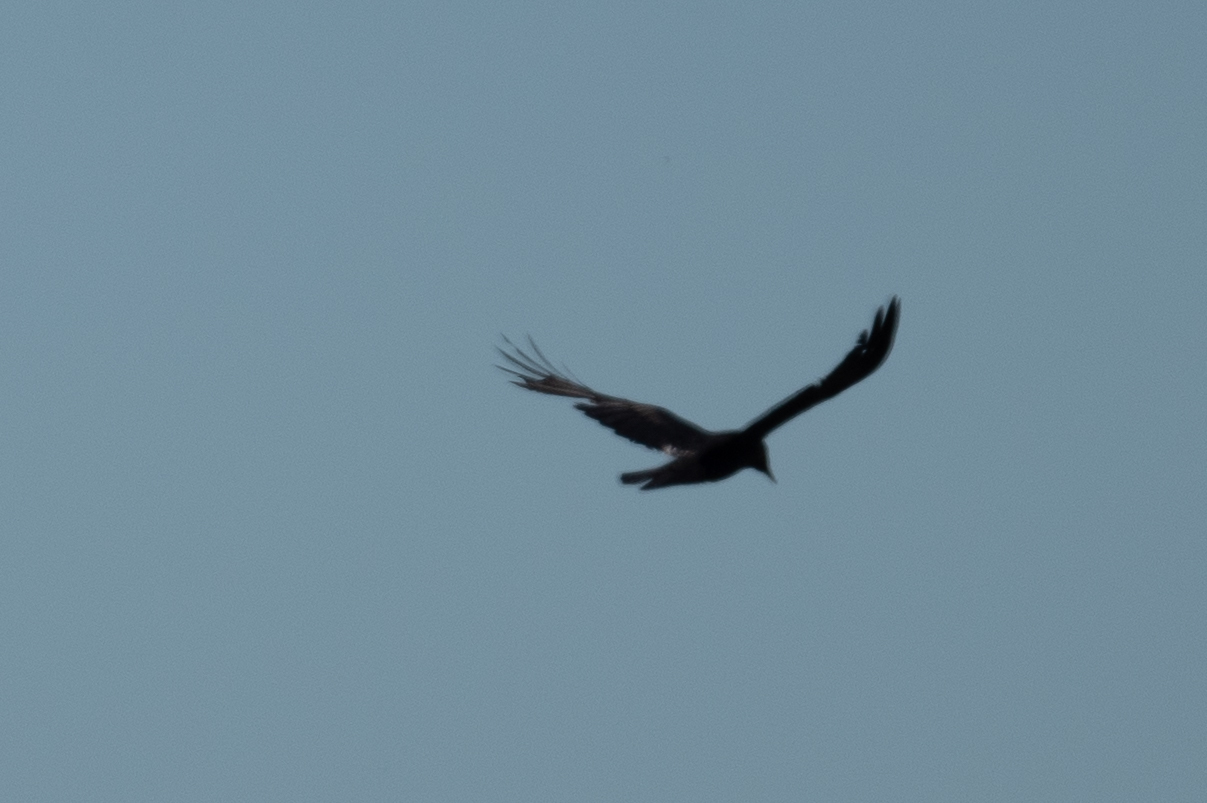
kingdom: Animalia
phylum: Chordata
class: Aves
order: Passeriformes
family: Corvidae
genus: Corvus
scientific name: Corvus brachyrhynchos
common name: American crow
